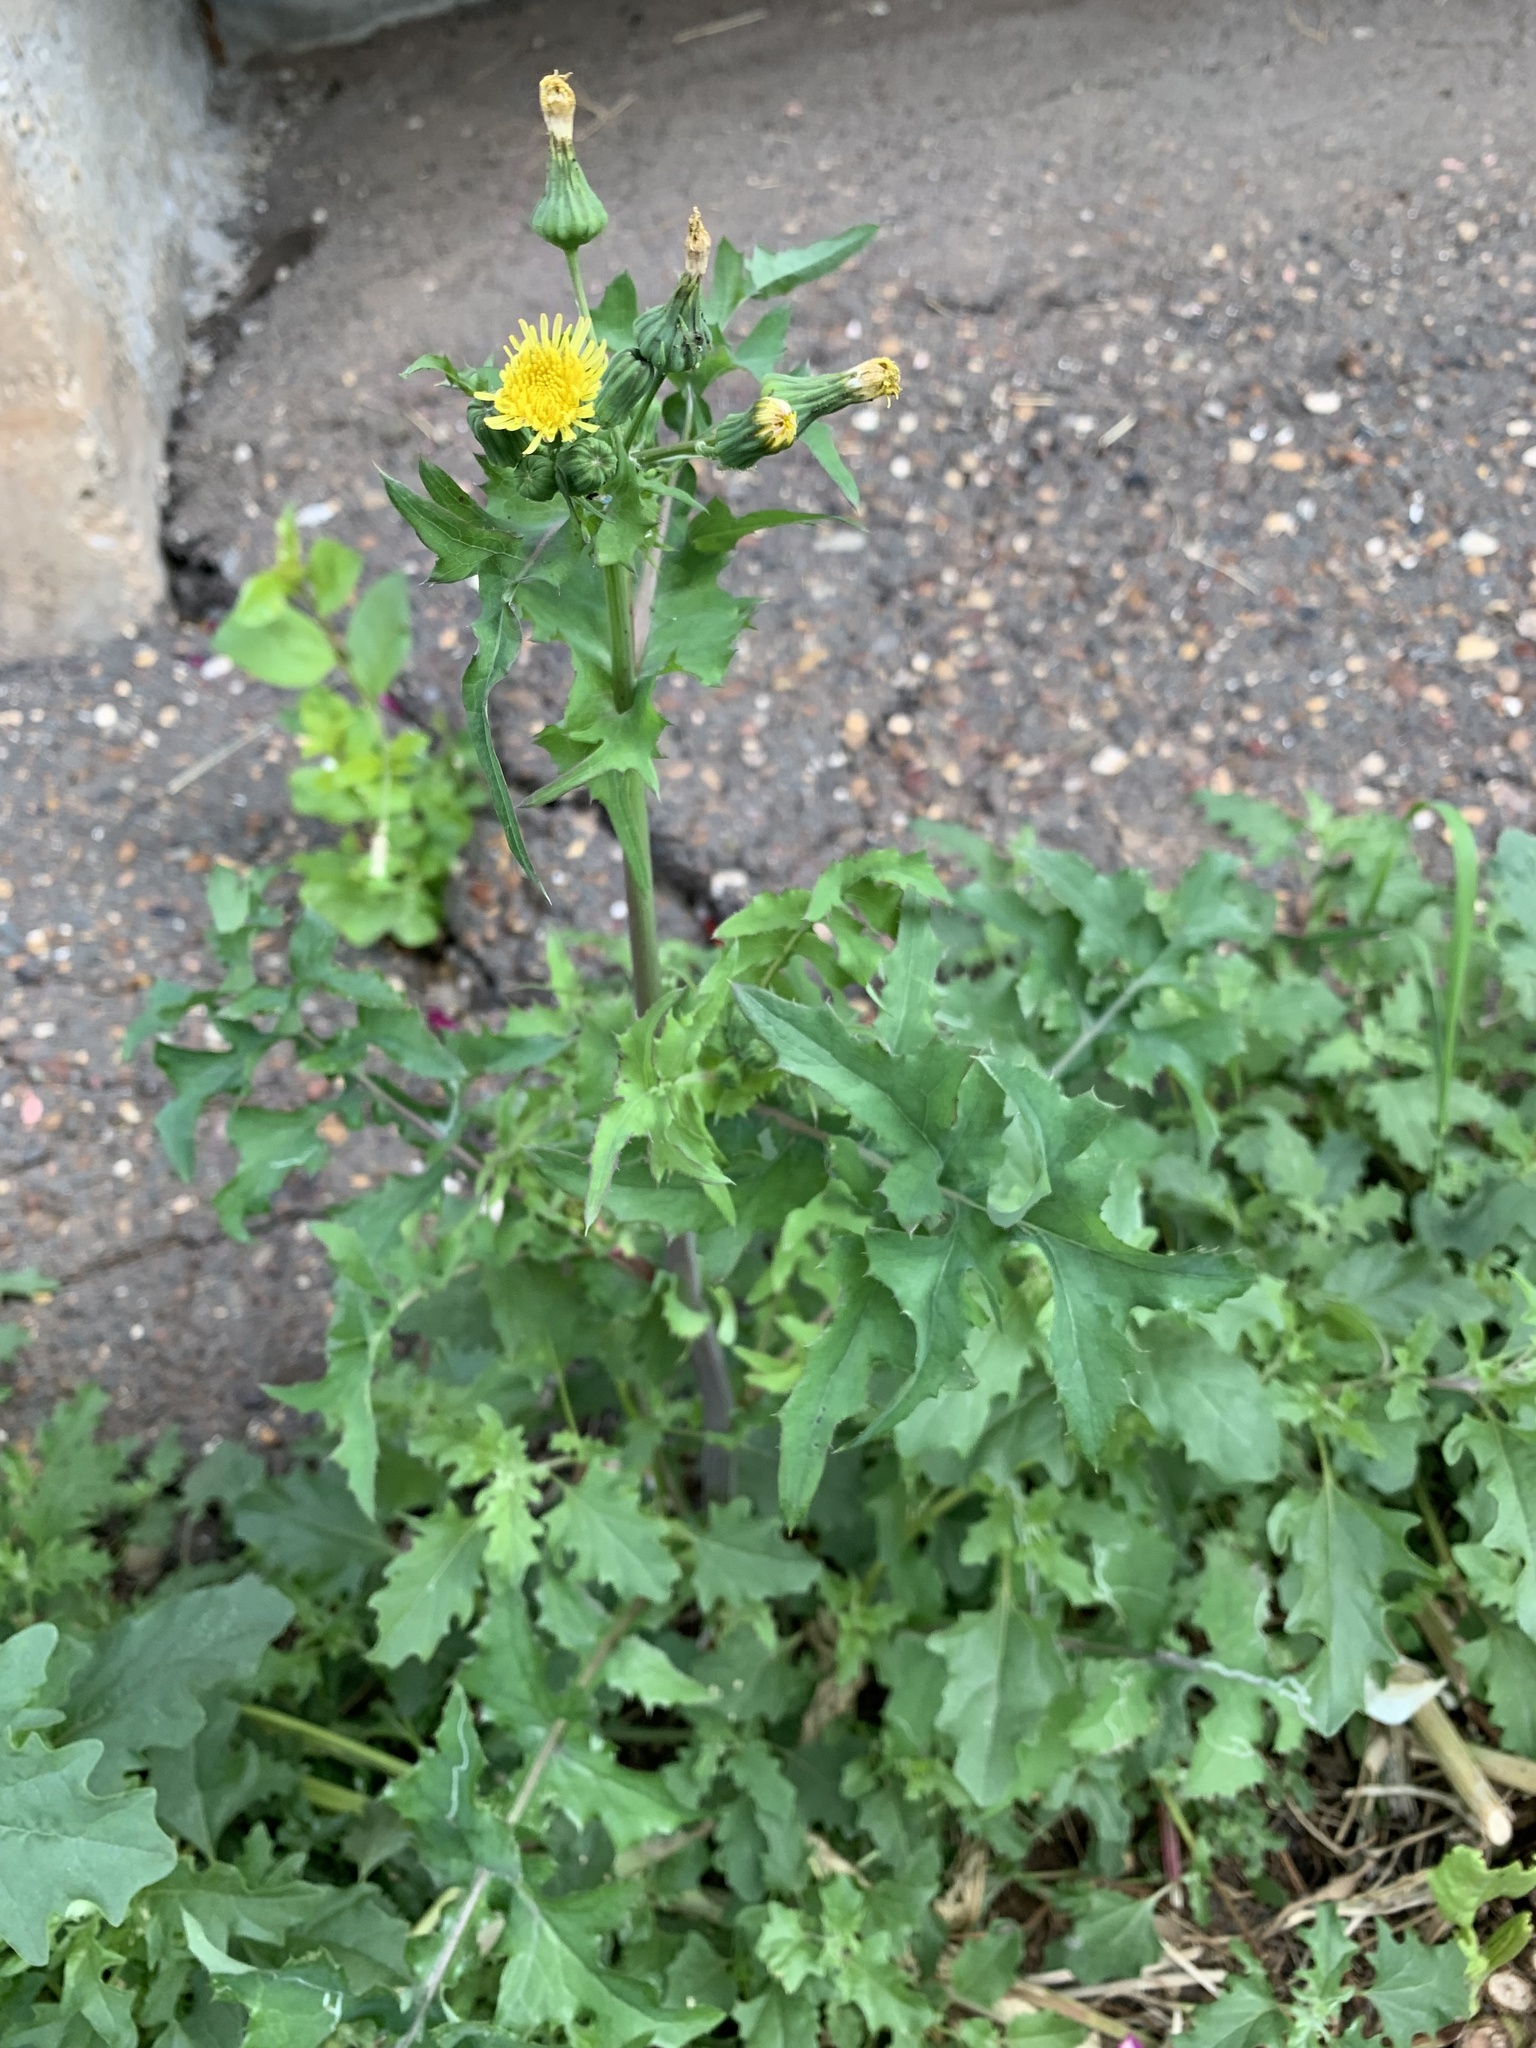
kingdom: Plantae
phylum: Tracheophyta
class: Magnoliopsida
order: Asterales
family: Asteraceae
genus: Sonchus
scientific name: Sonchus oleraceus
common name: Common sowthistle
